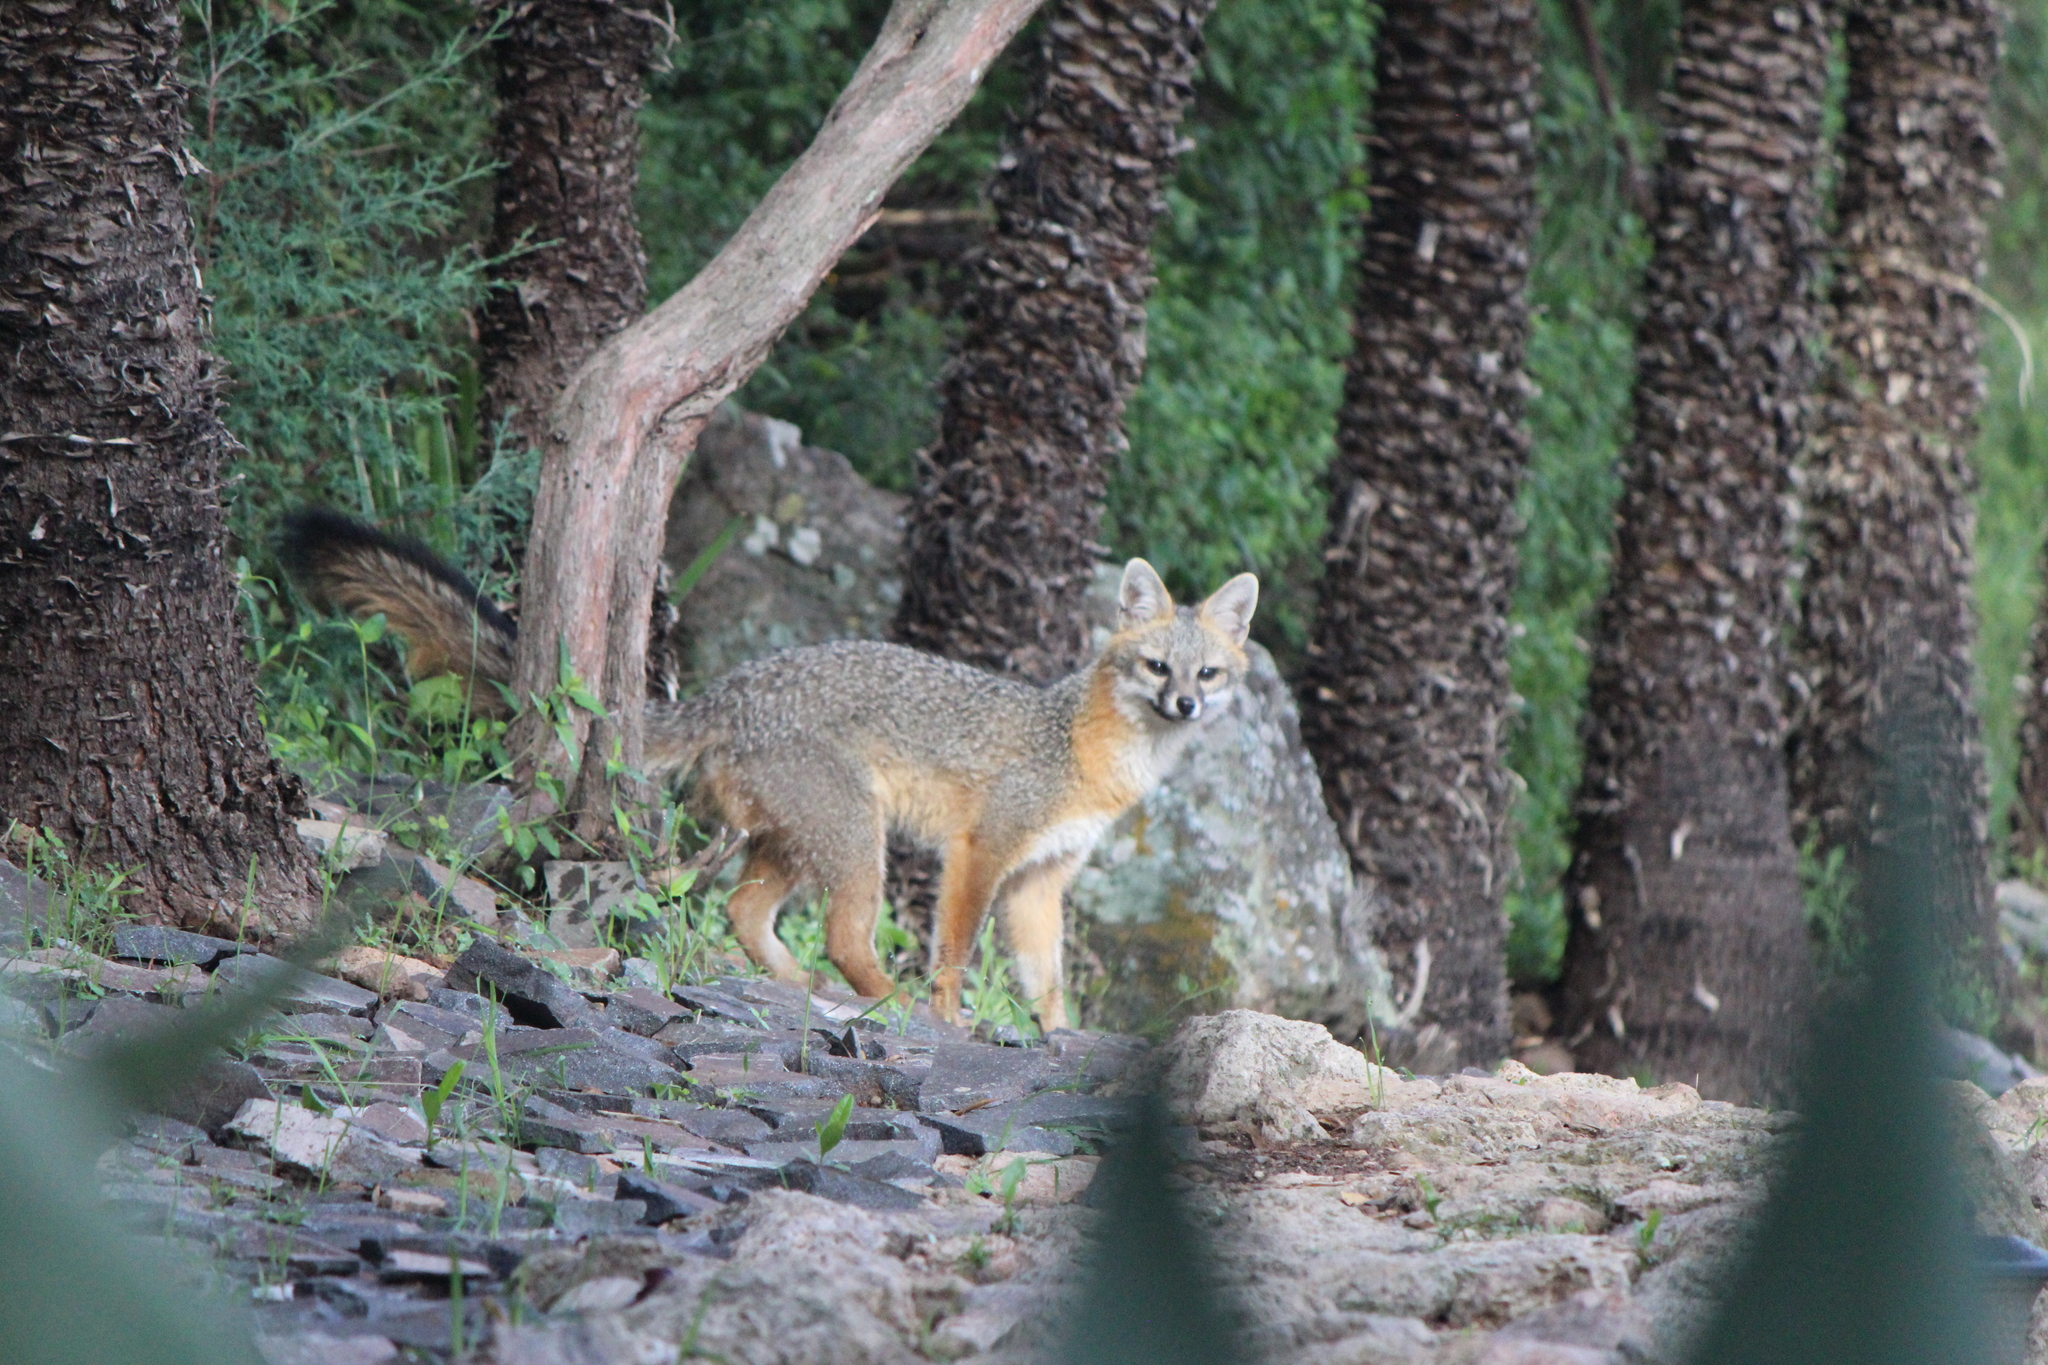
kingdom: Animalia
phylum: Chordata
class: Mammalia
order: Carnivora
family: Canidae
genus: Urocyon
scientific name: Urocyon cinereoargenteus
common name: Gray fox
